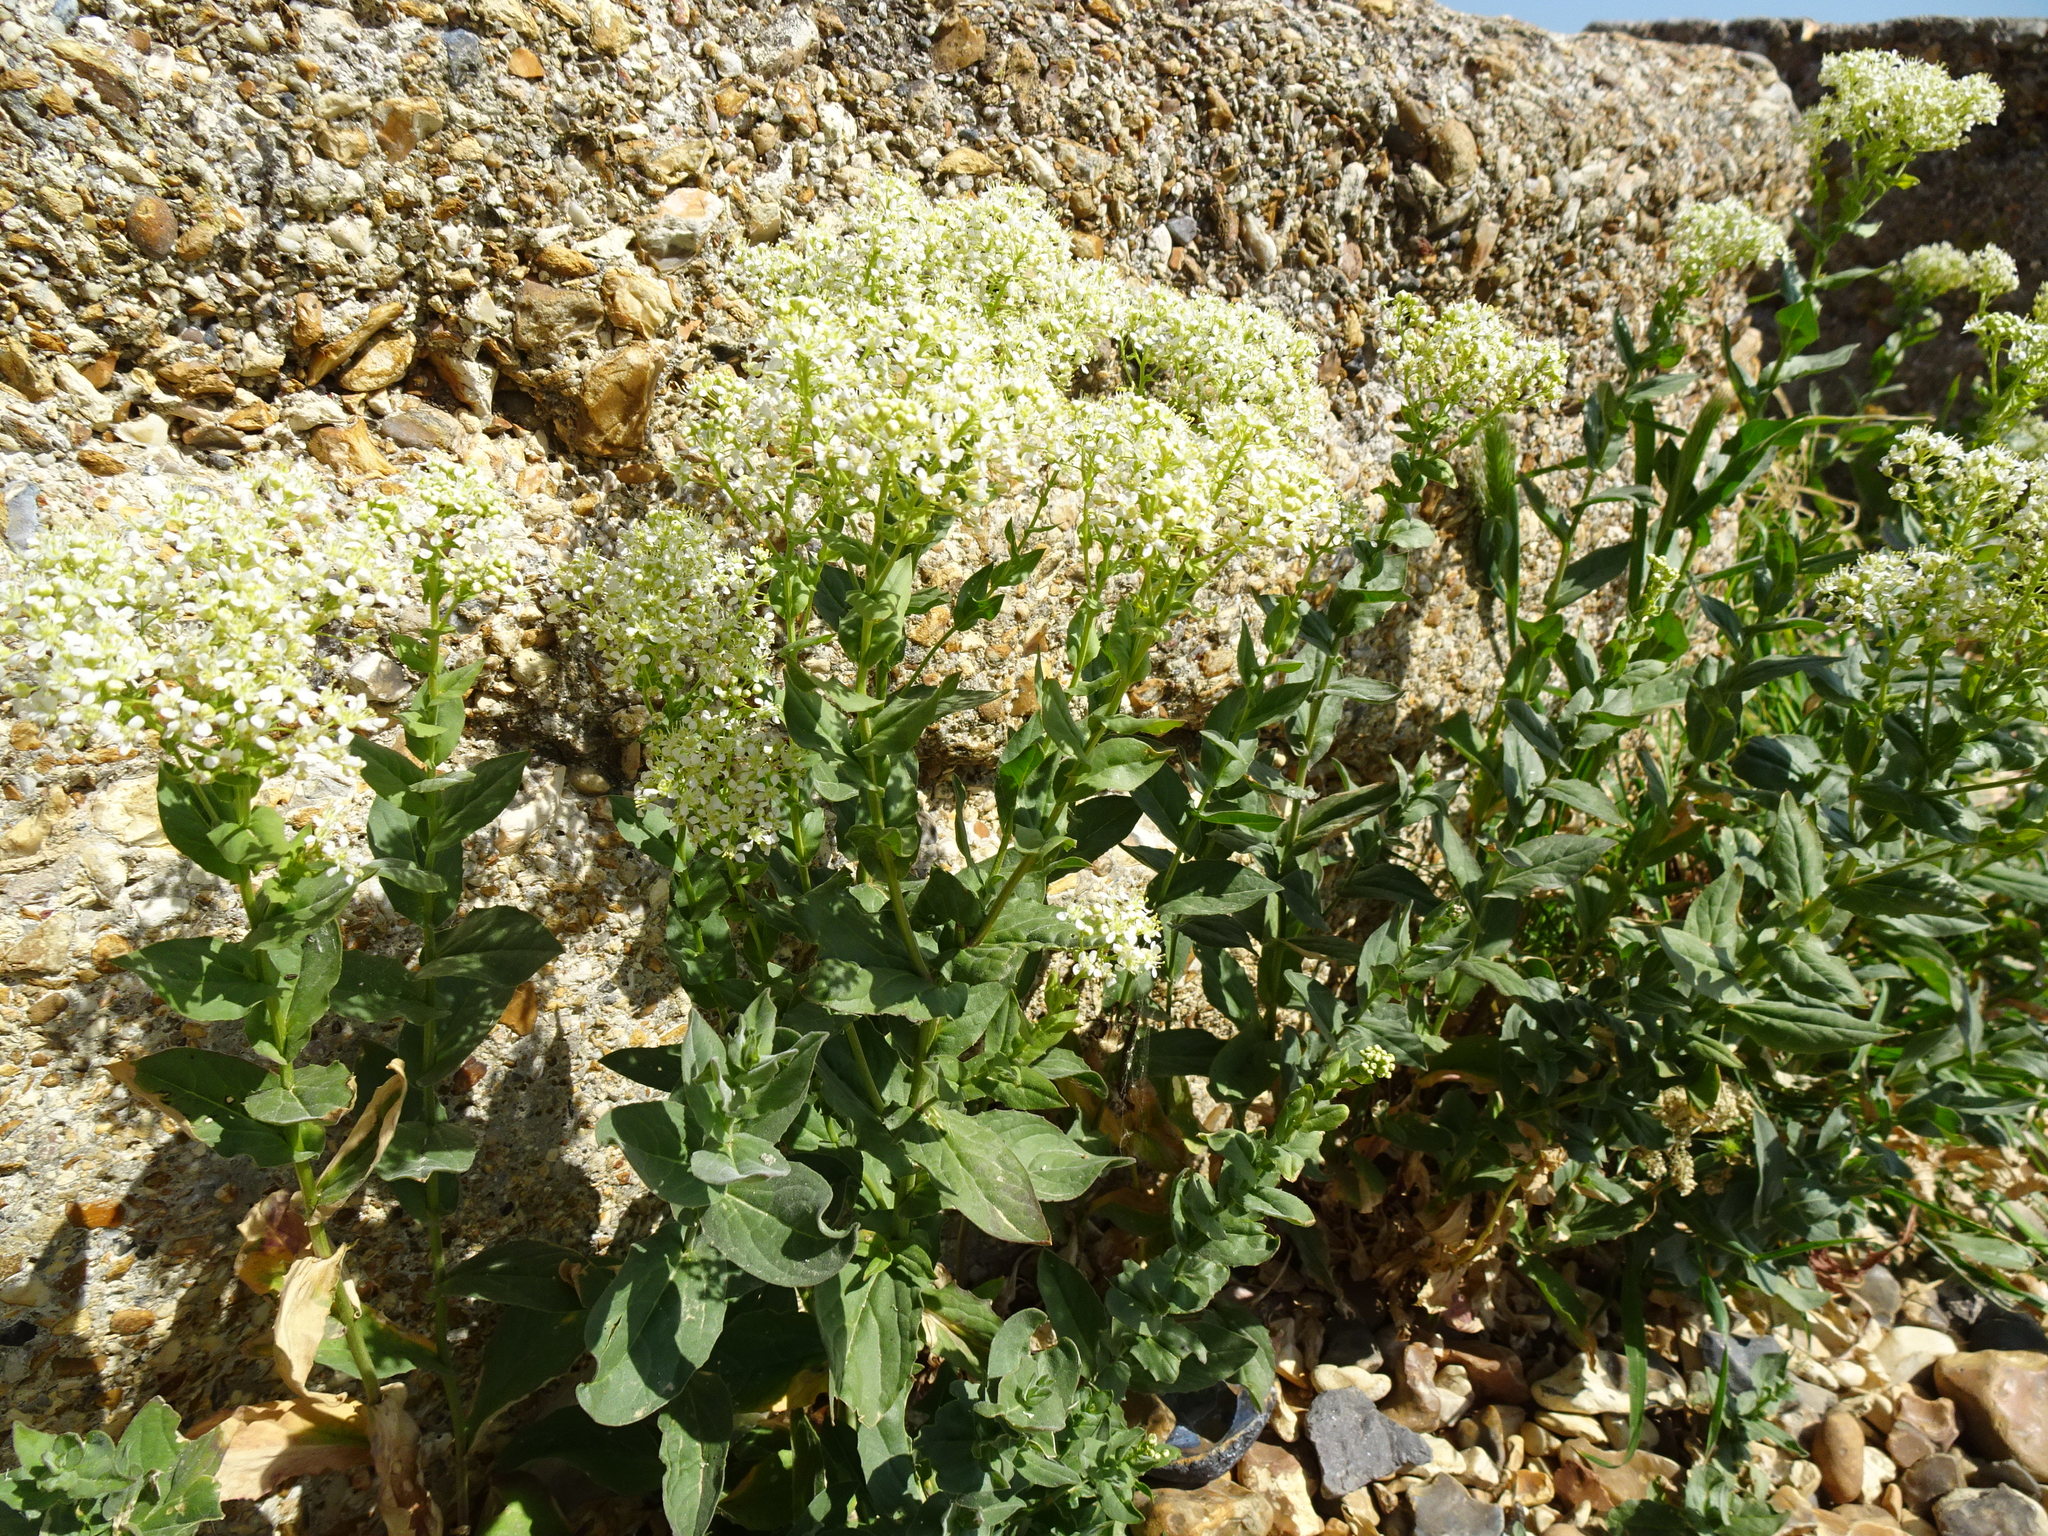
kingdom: Plantae
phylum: Tracheophyta
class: Magnoliopsida
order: Brassicales
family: Brassicaceae
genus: Lepidium
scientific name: Lepidium draba
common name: Hoary cress
